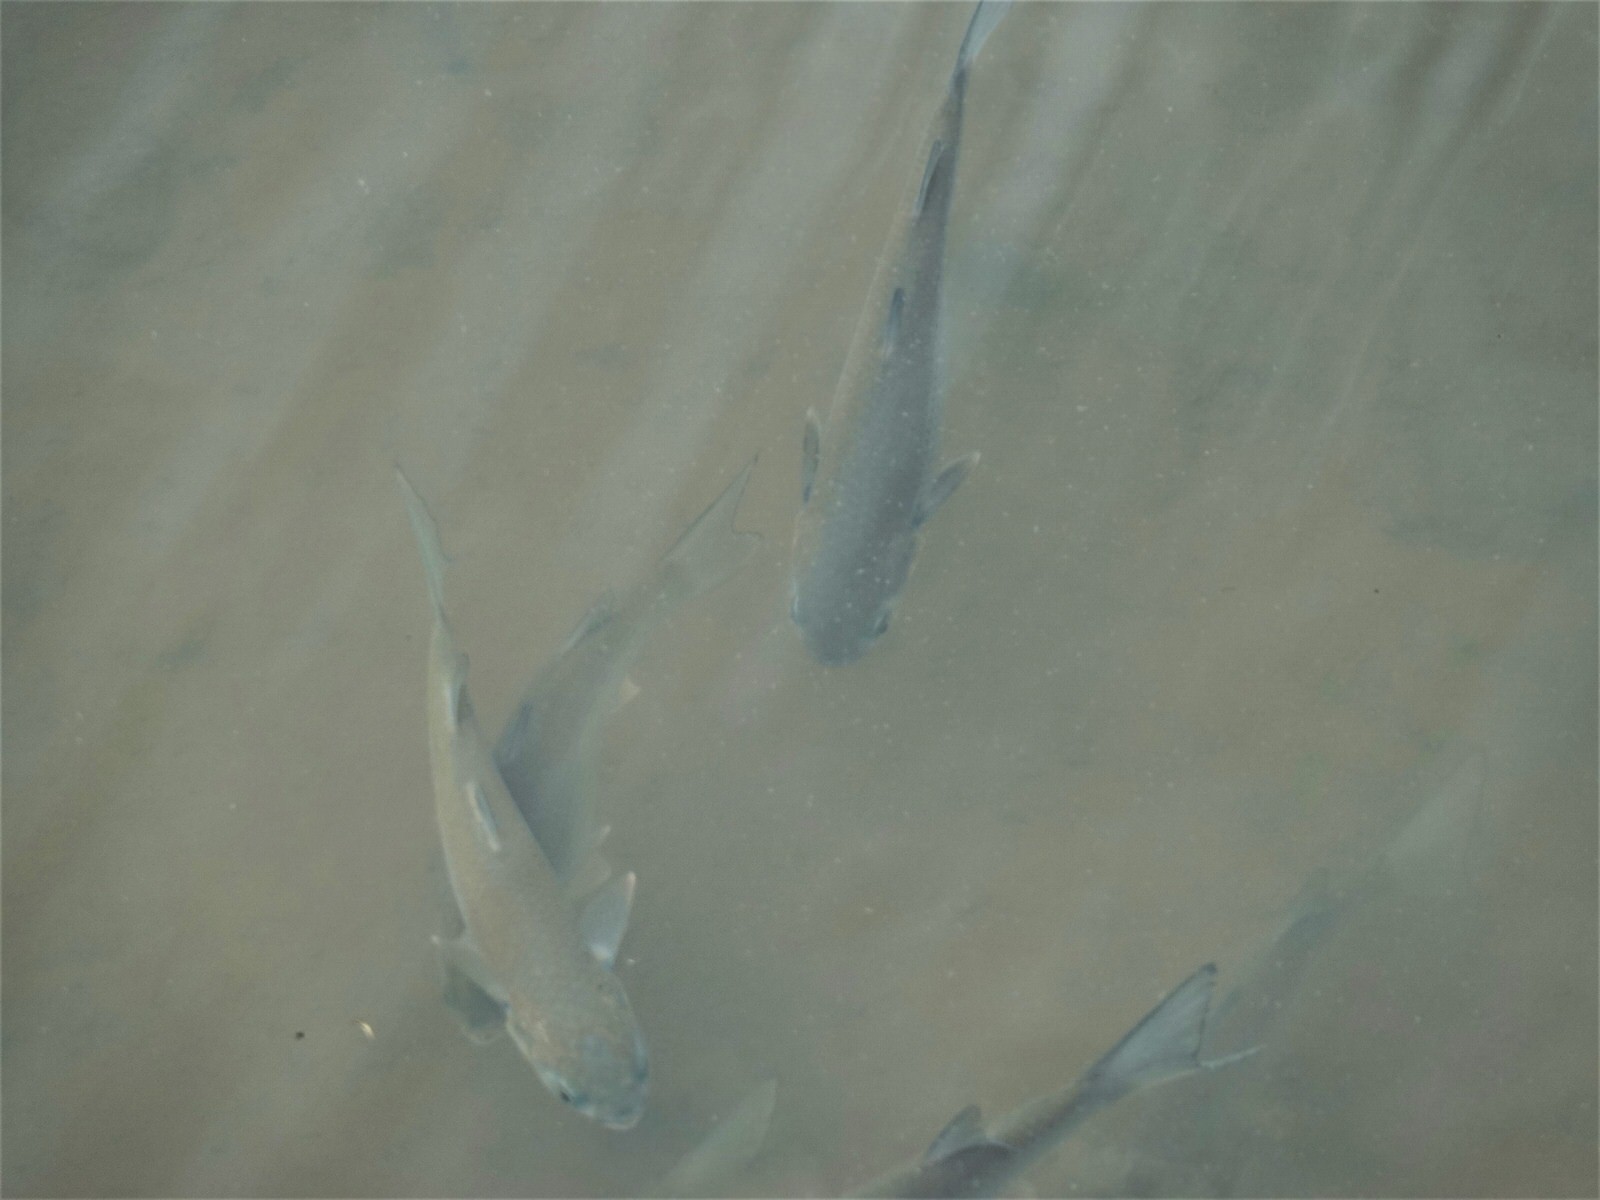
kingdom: Animalia
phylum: Chordata
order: Mugiliformes
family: Mugilidae
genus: Mugil
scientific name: Mugil cephalus
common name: Grey mullet
